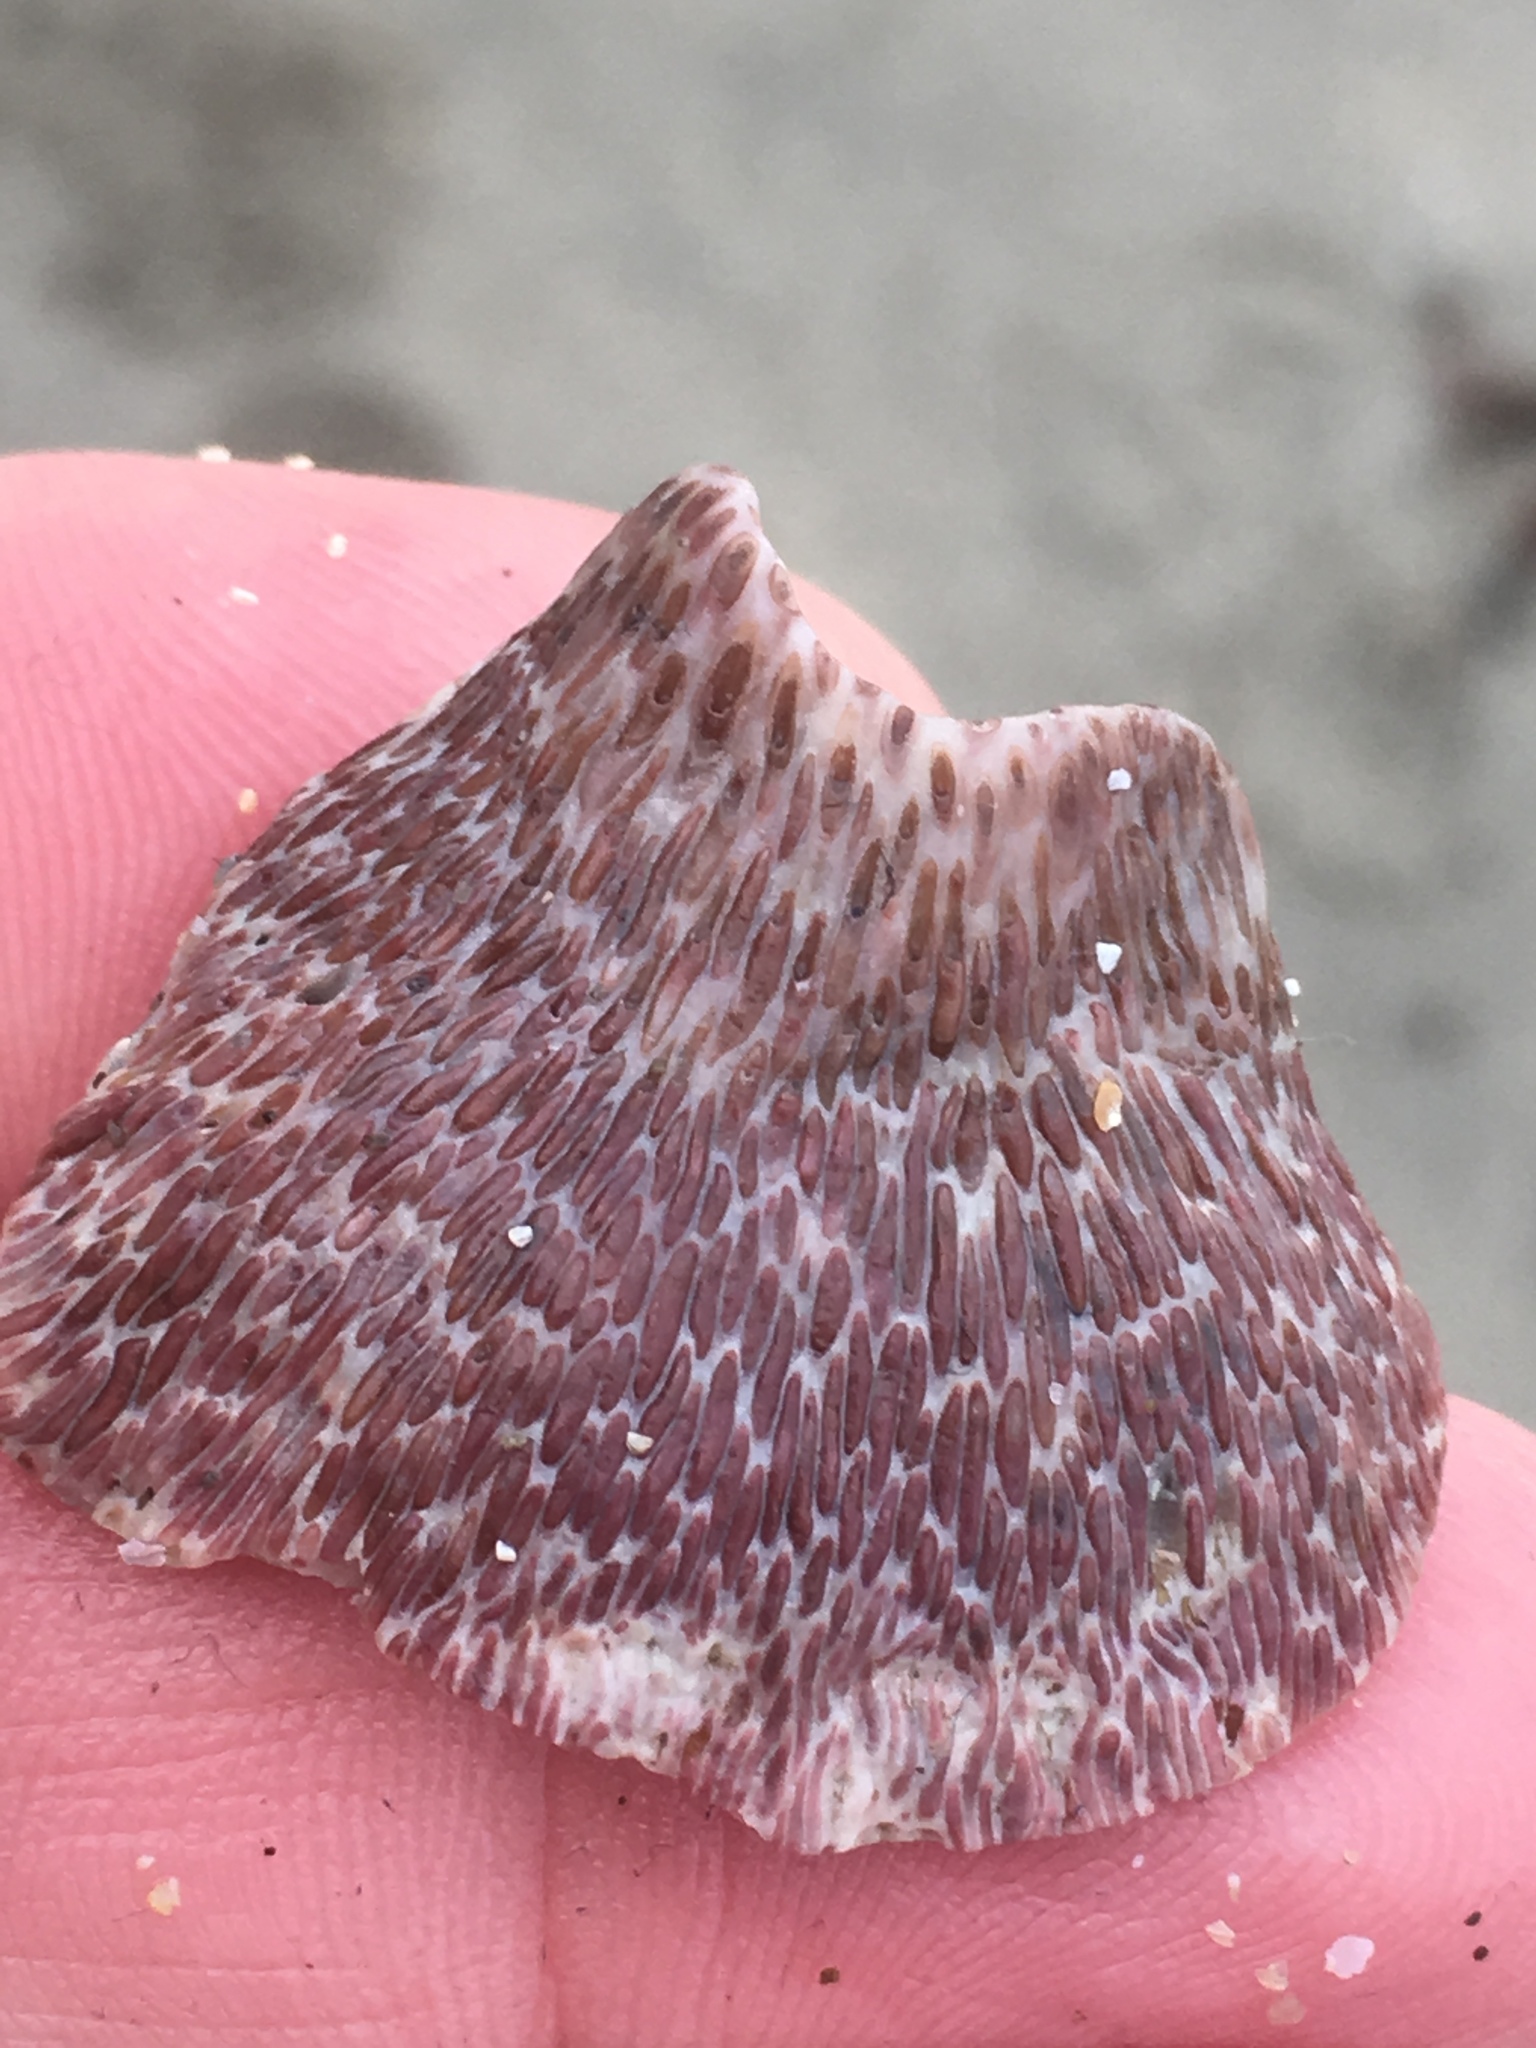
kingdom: Animalia
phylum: Arthropoda
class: Maxillopoda
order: Sessilia
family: Tetraclitidae
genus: Tetraclita
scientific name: Tetraclita rubescens
